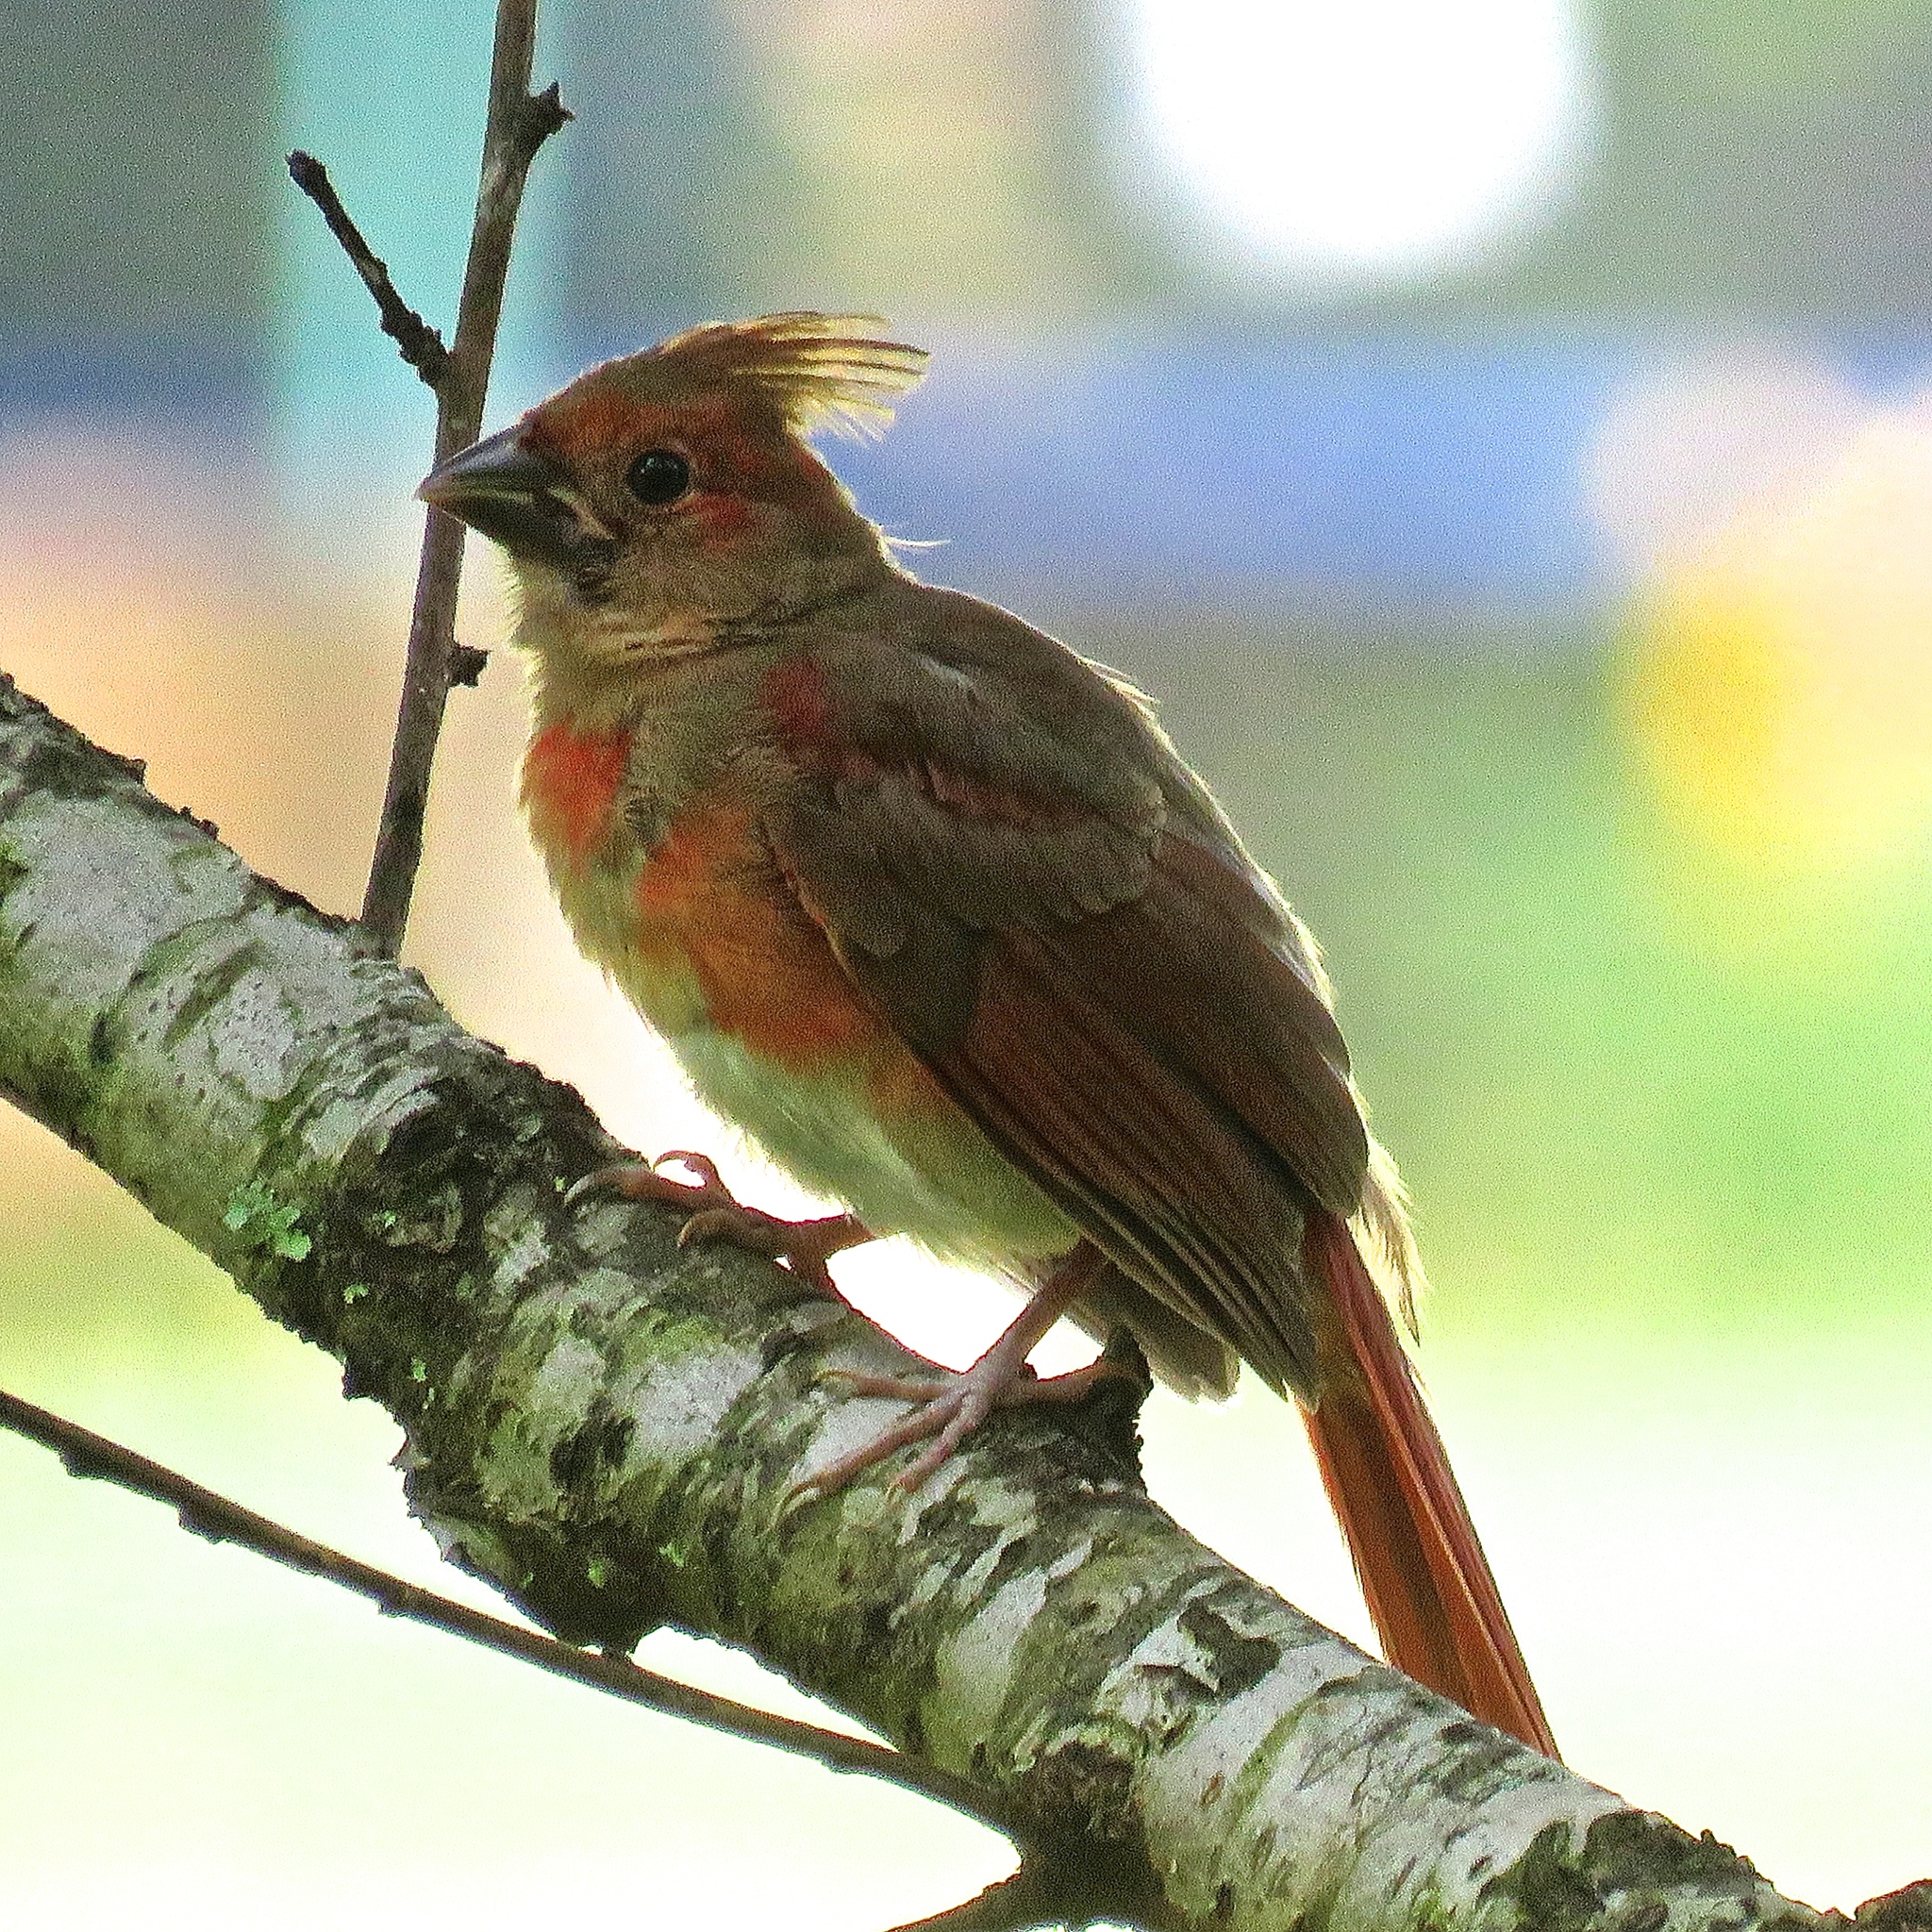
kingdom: Animalia
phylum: Chordata
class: Aves
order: Passeriformes
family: Cardinalidae
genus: Cardinalis
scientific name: Cardinalis cardinalis
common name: Northern cardinal
